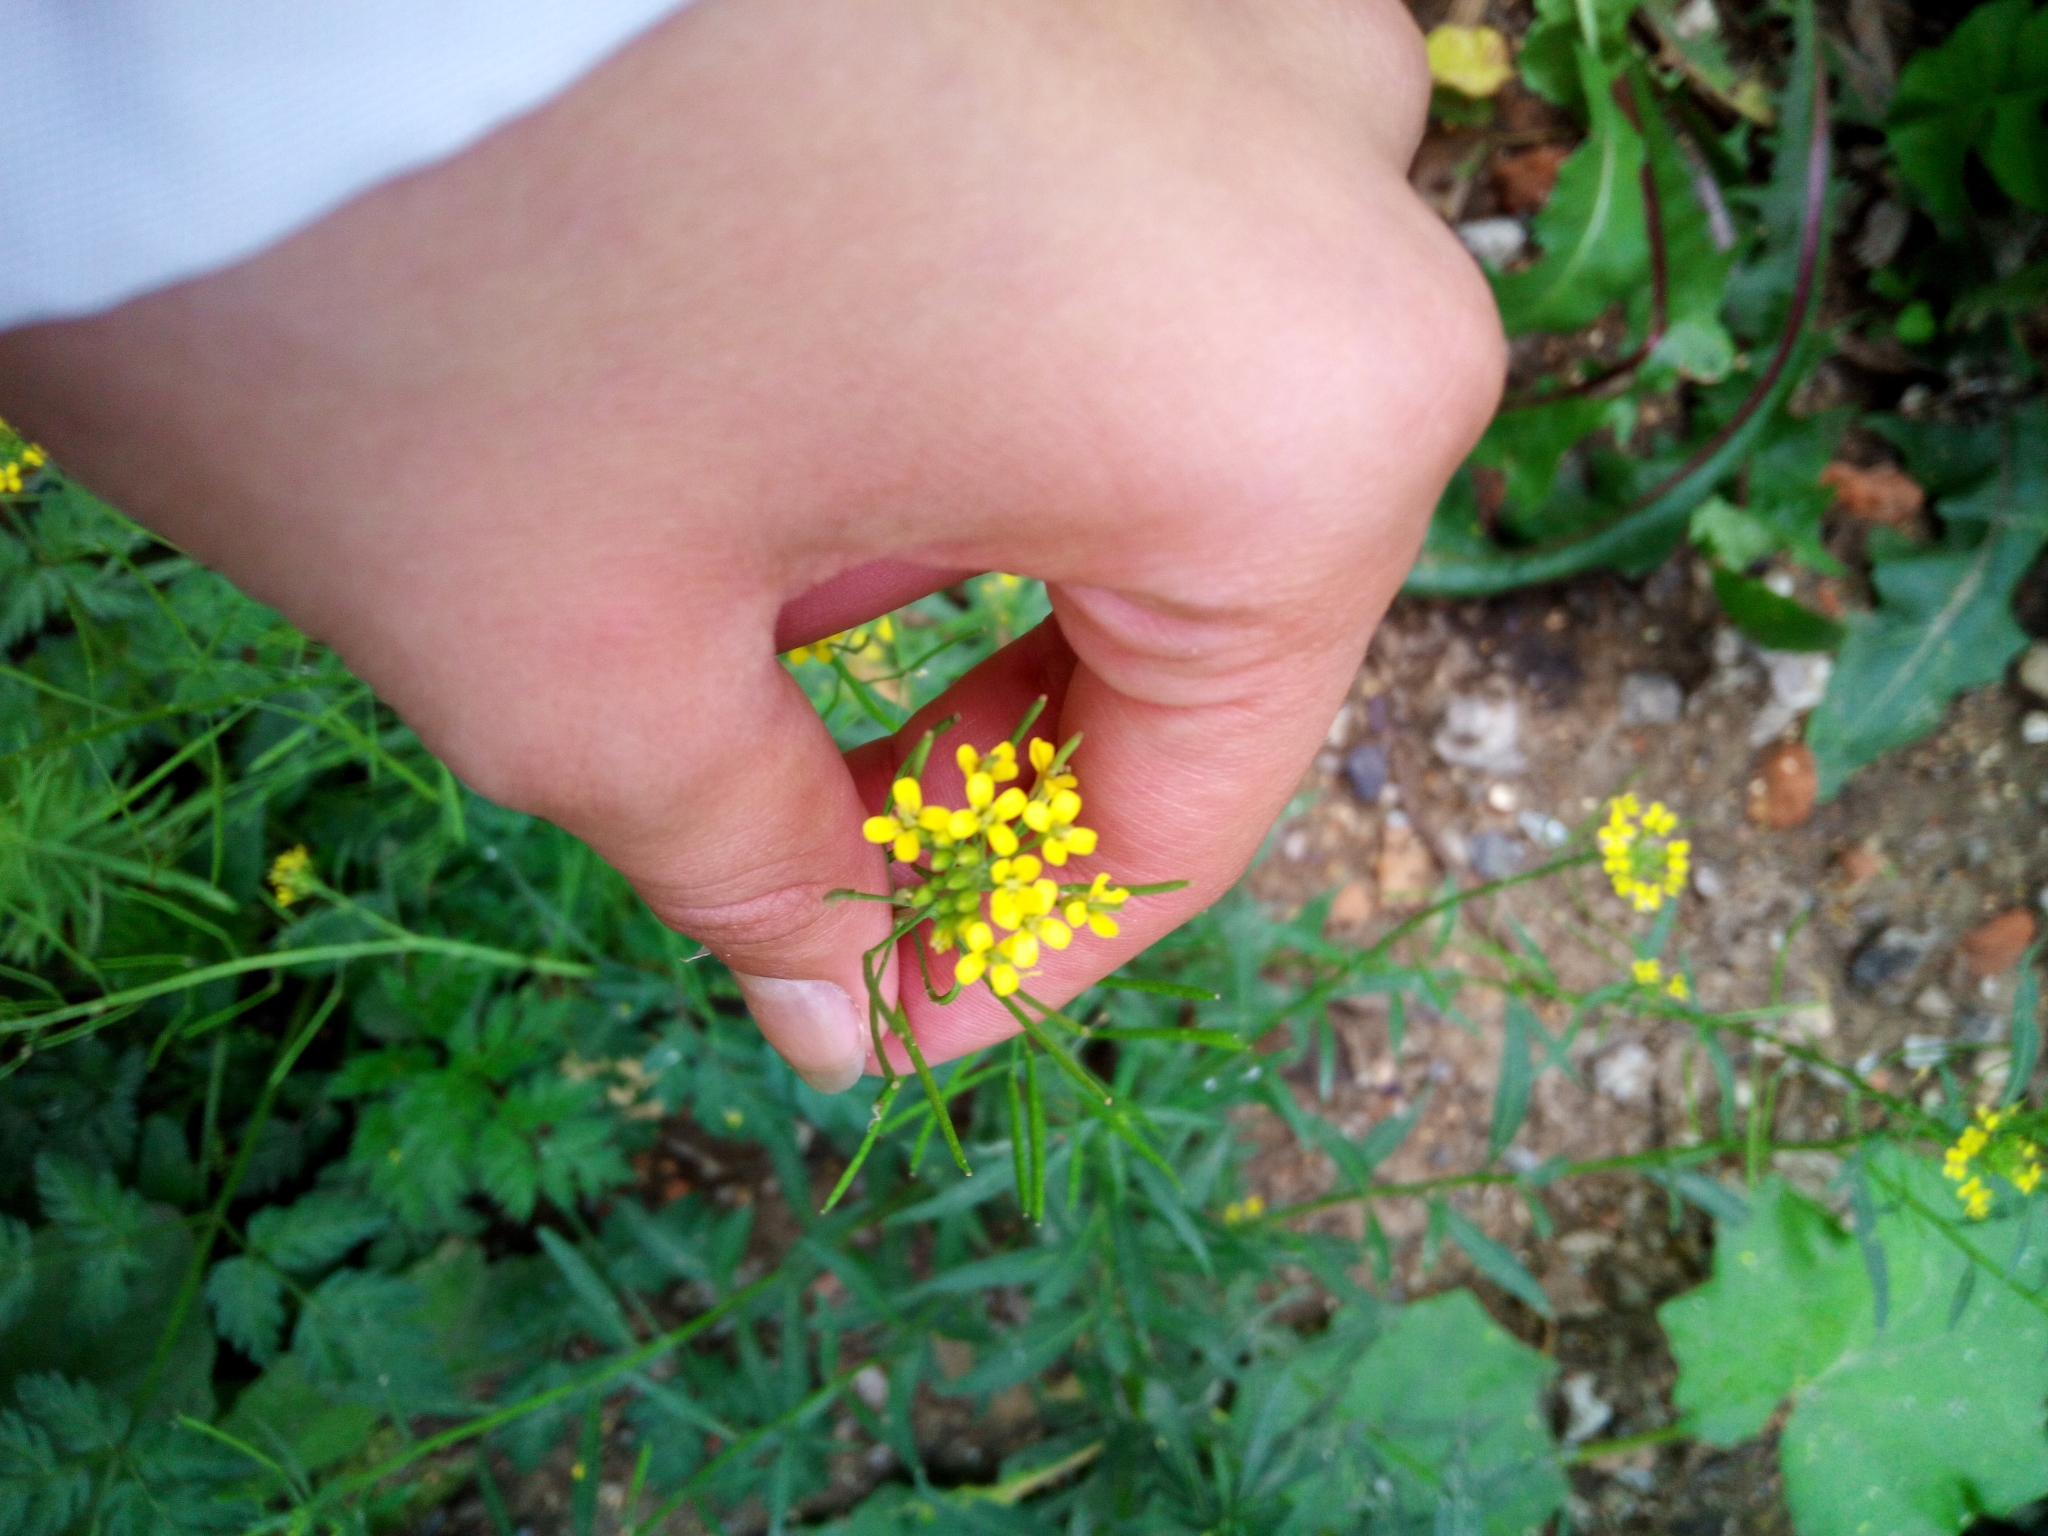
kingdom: Plantae
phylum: Tracheophyta
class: Magnoliopsida
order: Brassicales
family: Brassicaceae
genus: Erysimum
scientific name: Erysimum cheiranthoides
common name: Treacle mustard
